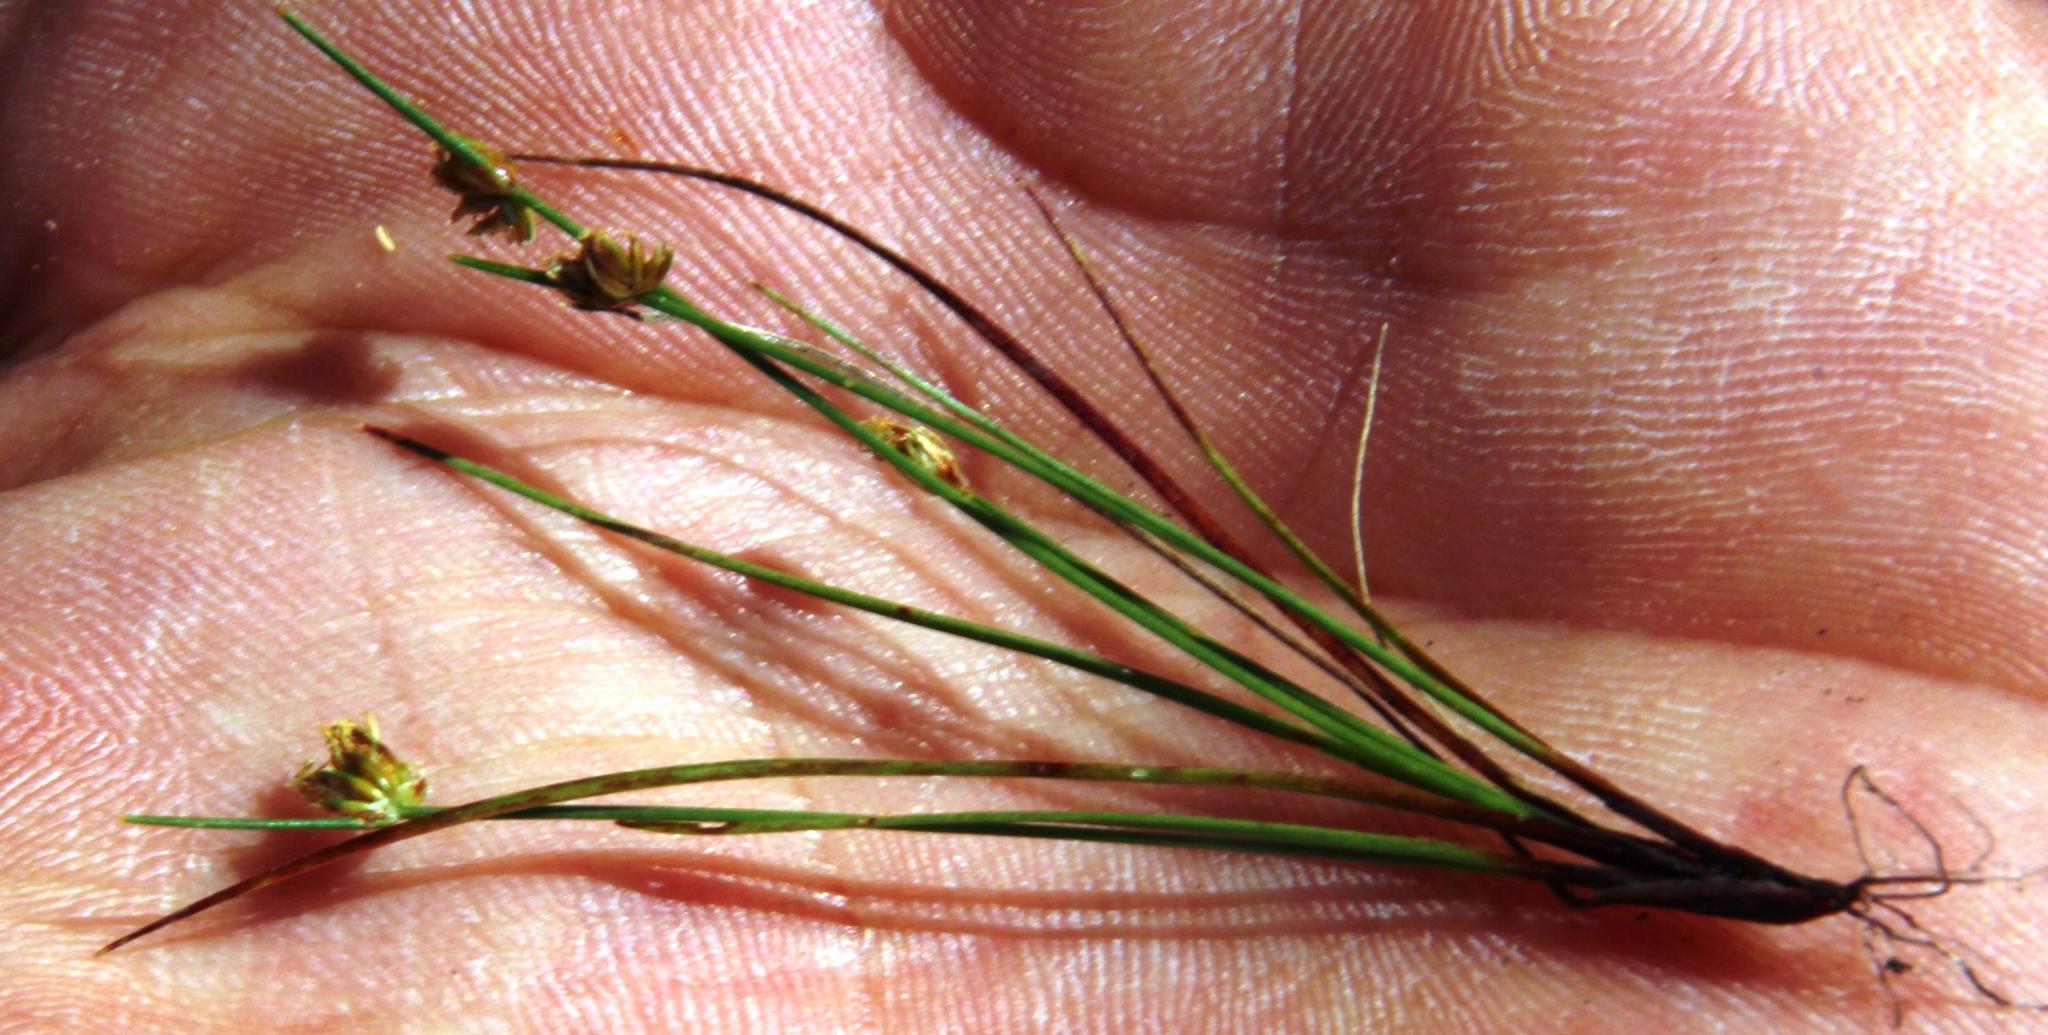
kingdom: Plantae
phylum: Tracheophyta
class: Liliopsida
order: Poales
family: Cyperaceae
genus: Isolepis
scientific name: Isolepis antarctica
